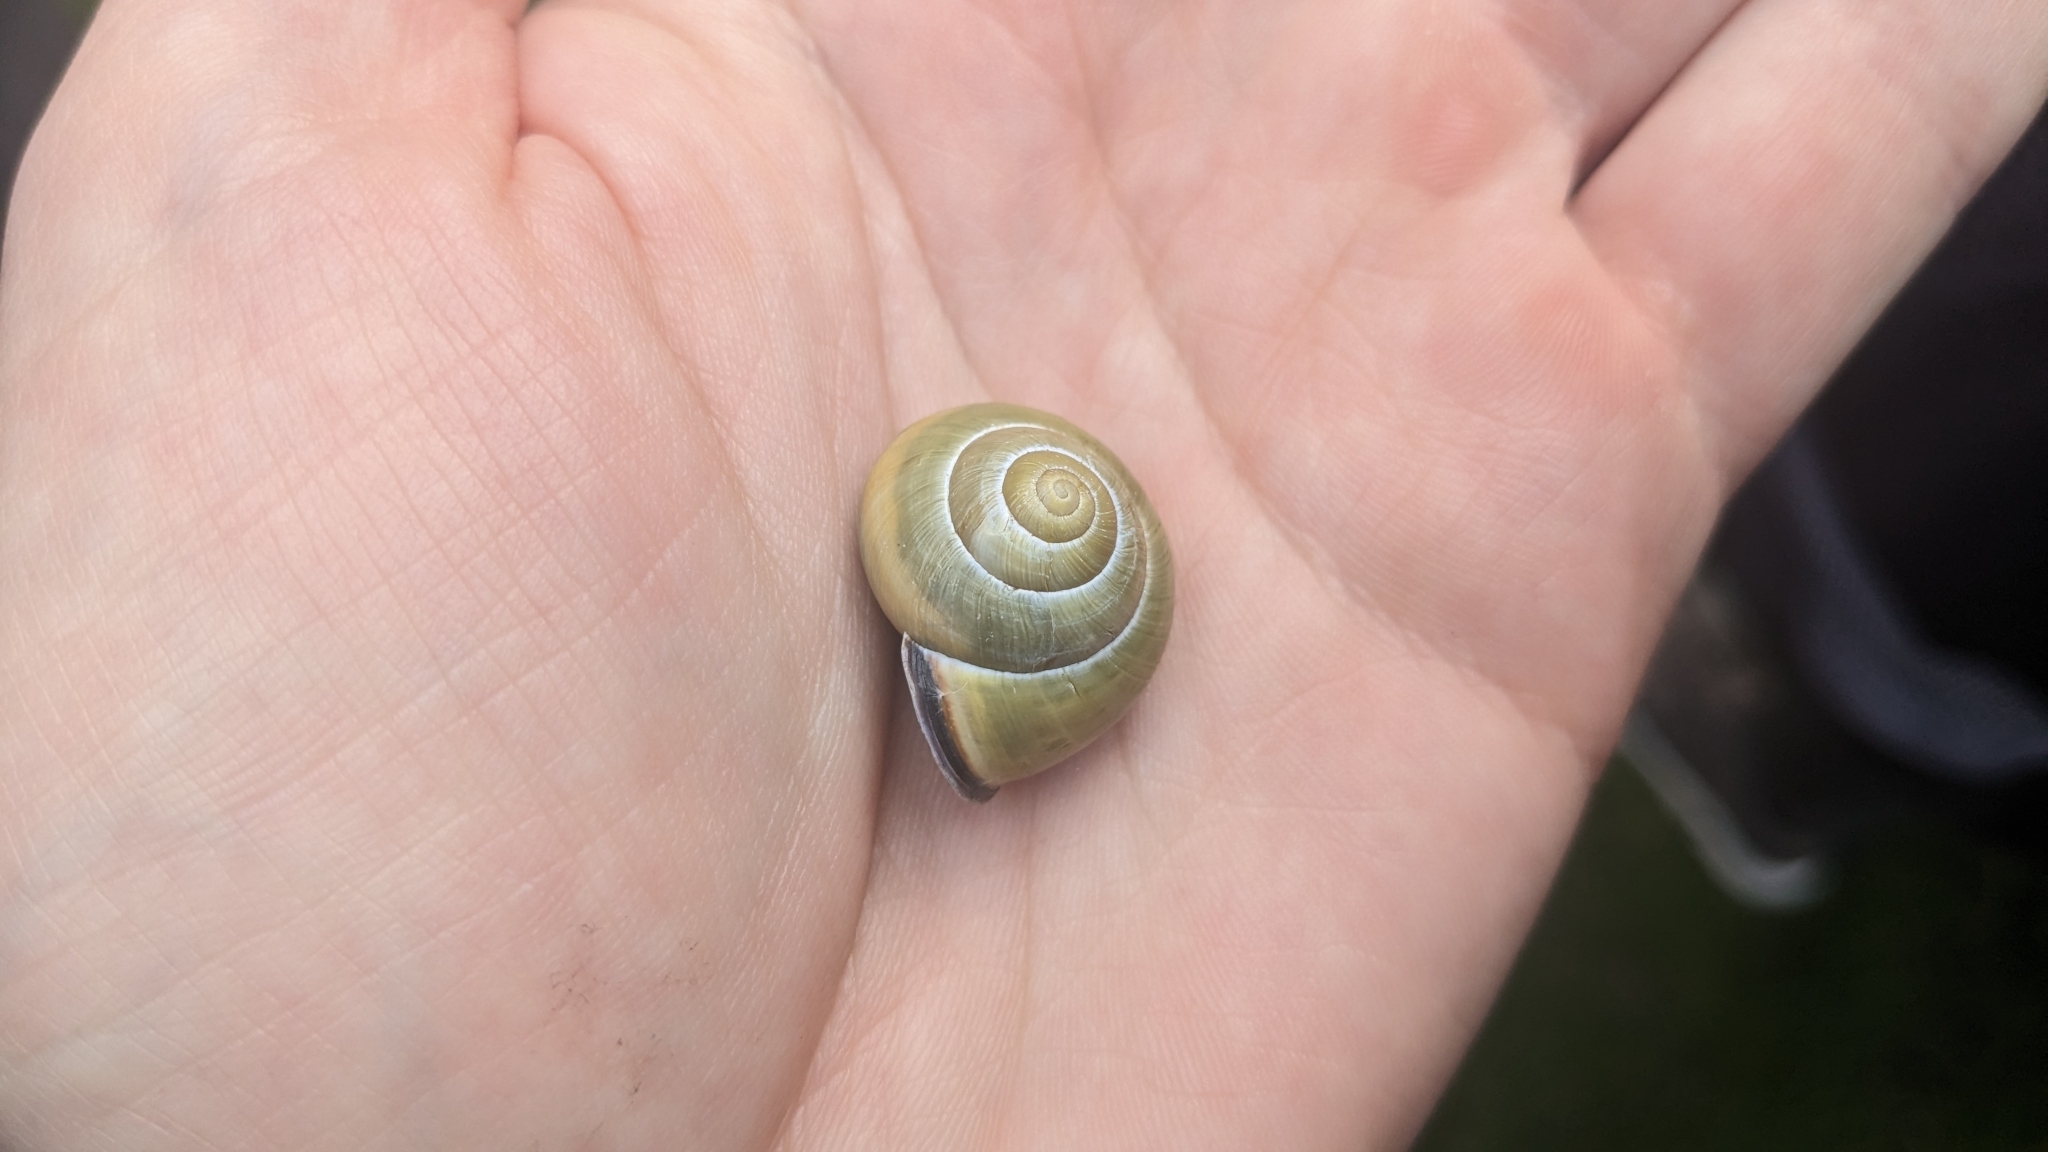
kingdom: Animalia
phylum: Mollusca
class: Gastropoda
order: Stylommatophora
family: Helicidae
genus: Cepaea
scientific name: Cepaea nemoralis
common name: Grovesnail
